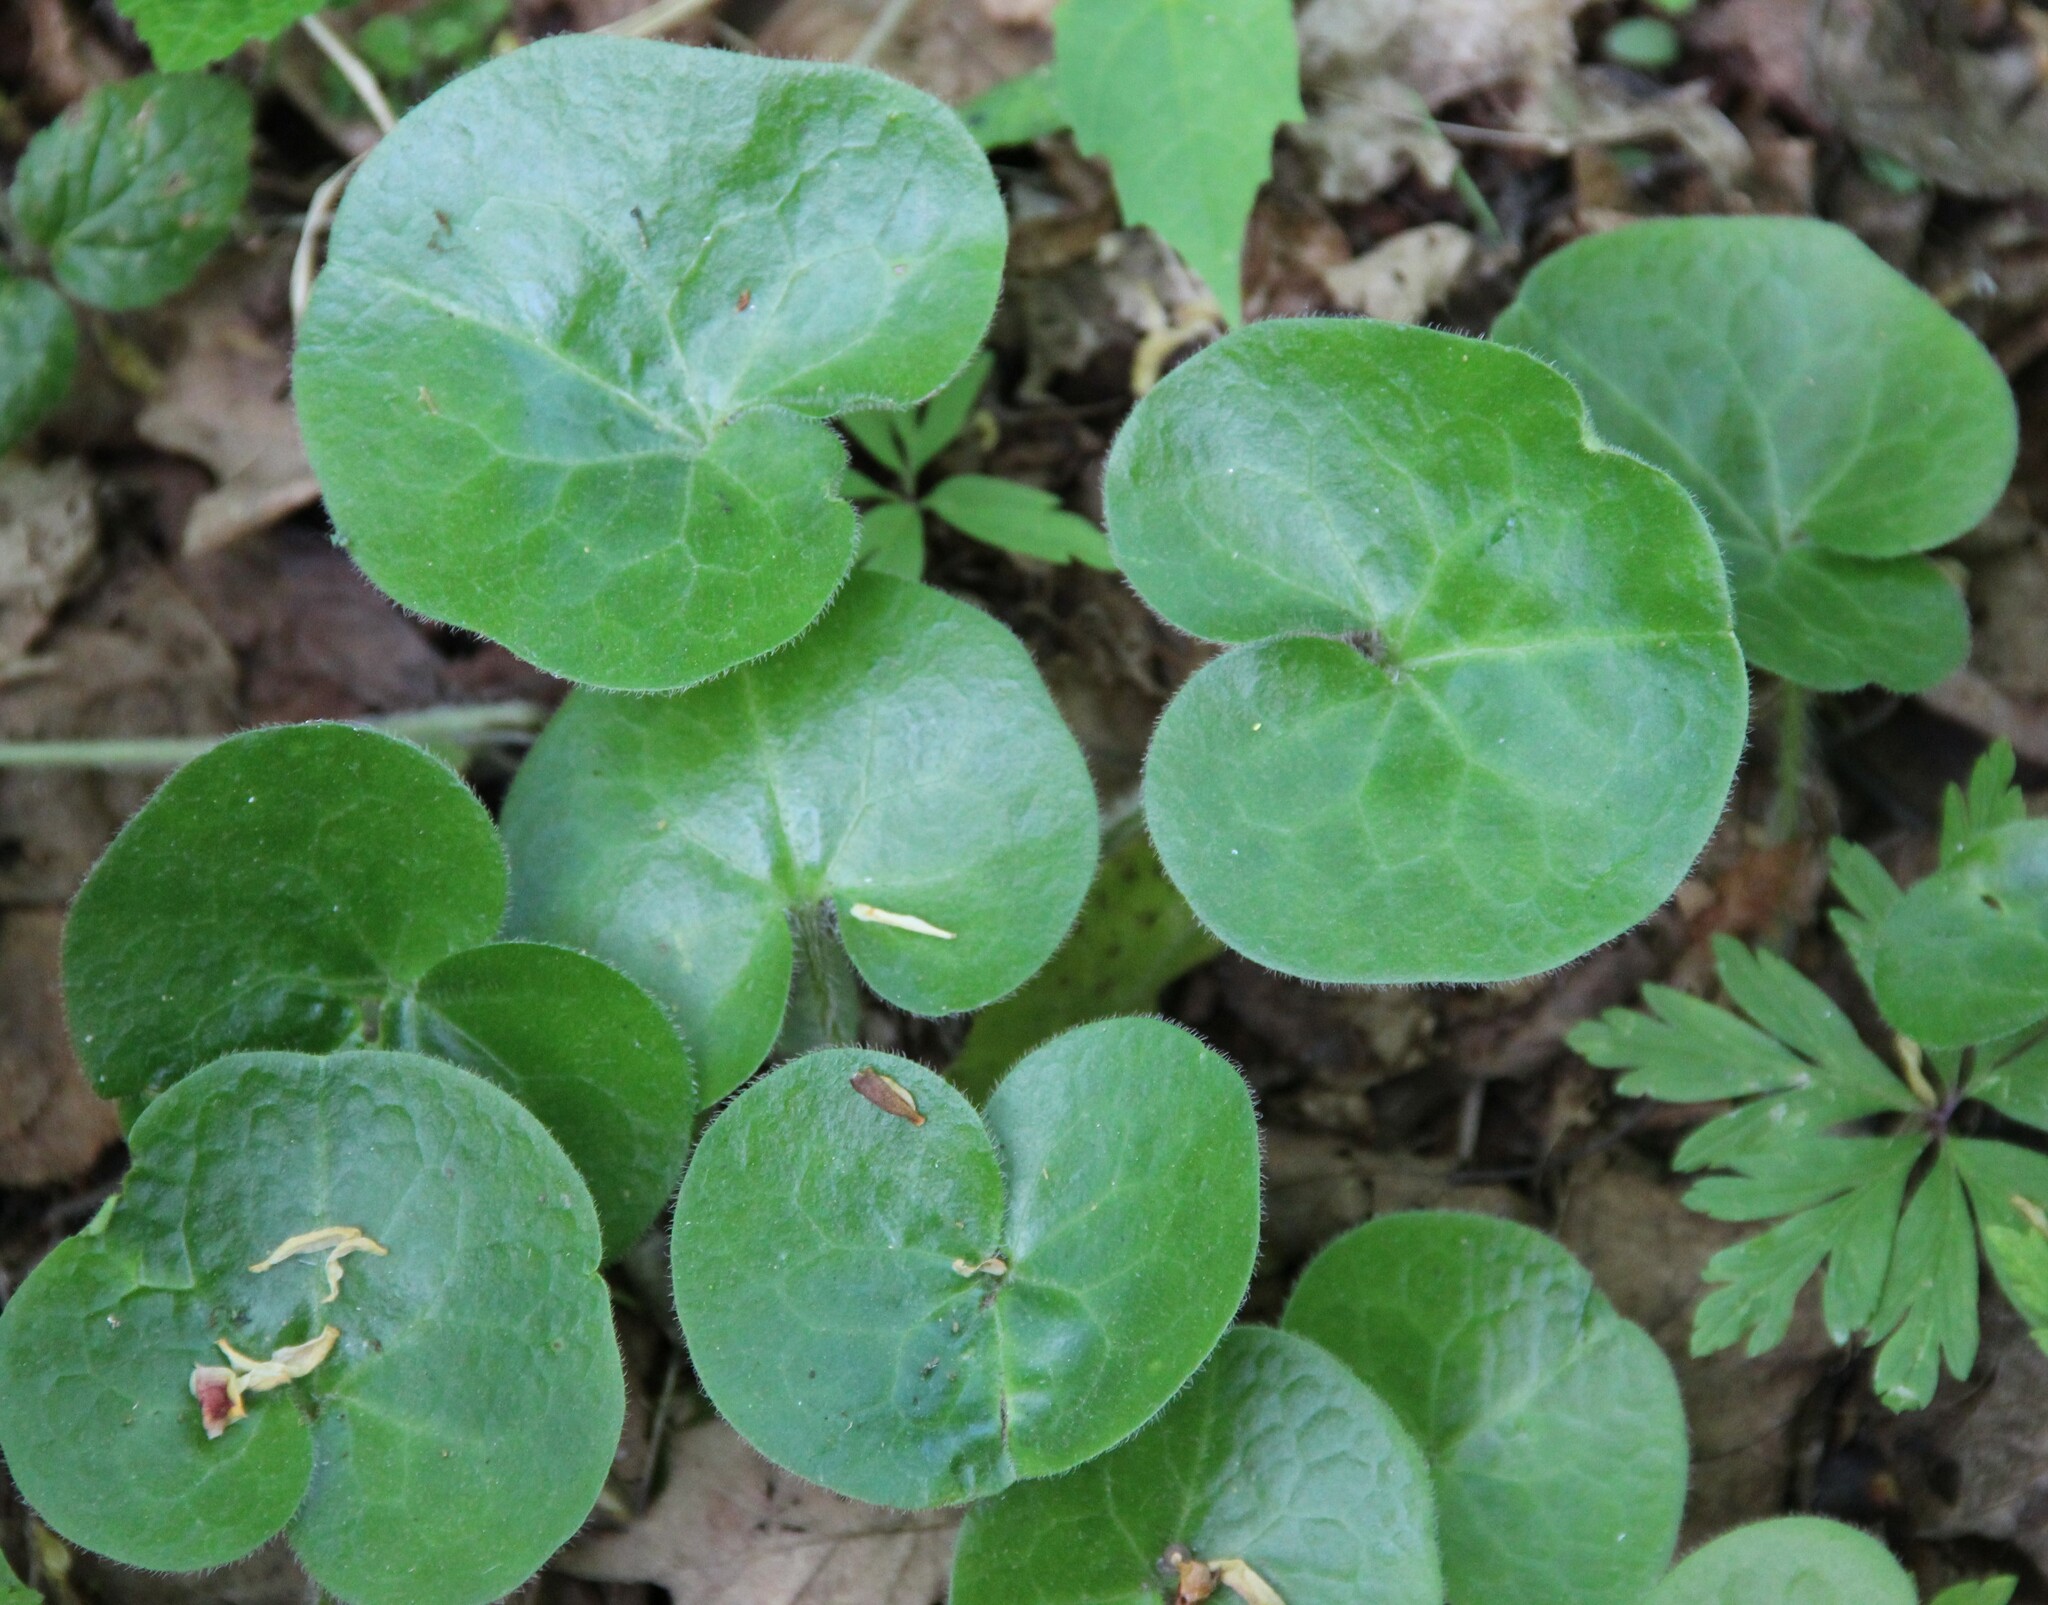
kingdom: Plantae
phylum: Tracheophyta
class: Magnoliopsida
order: Piperales
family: Aristolochiaceae
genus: Asarum
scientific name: Asarum europaeum
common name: Asarabacca
